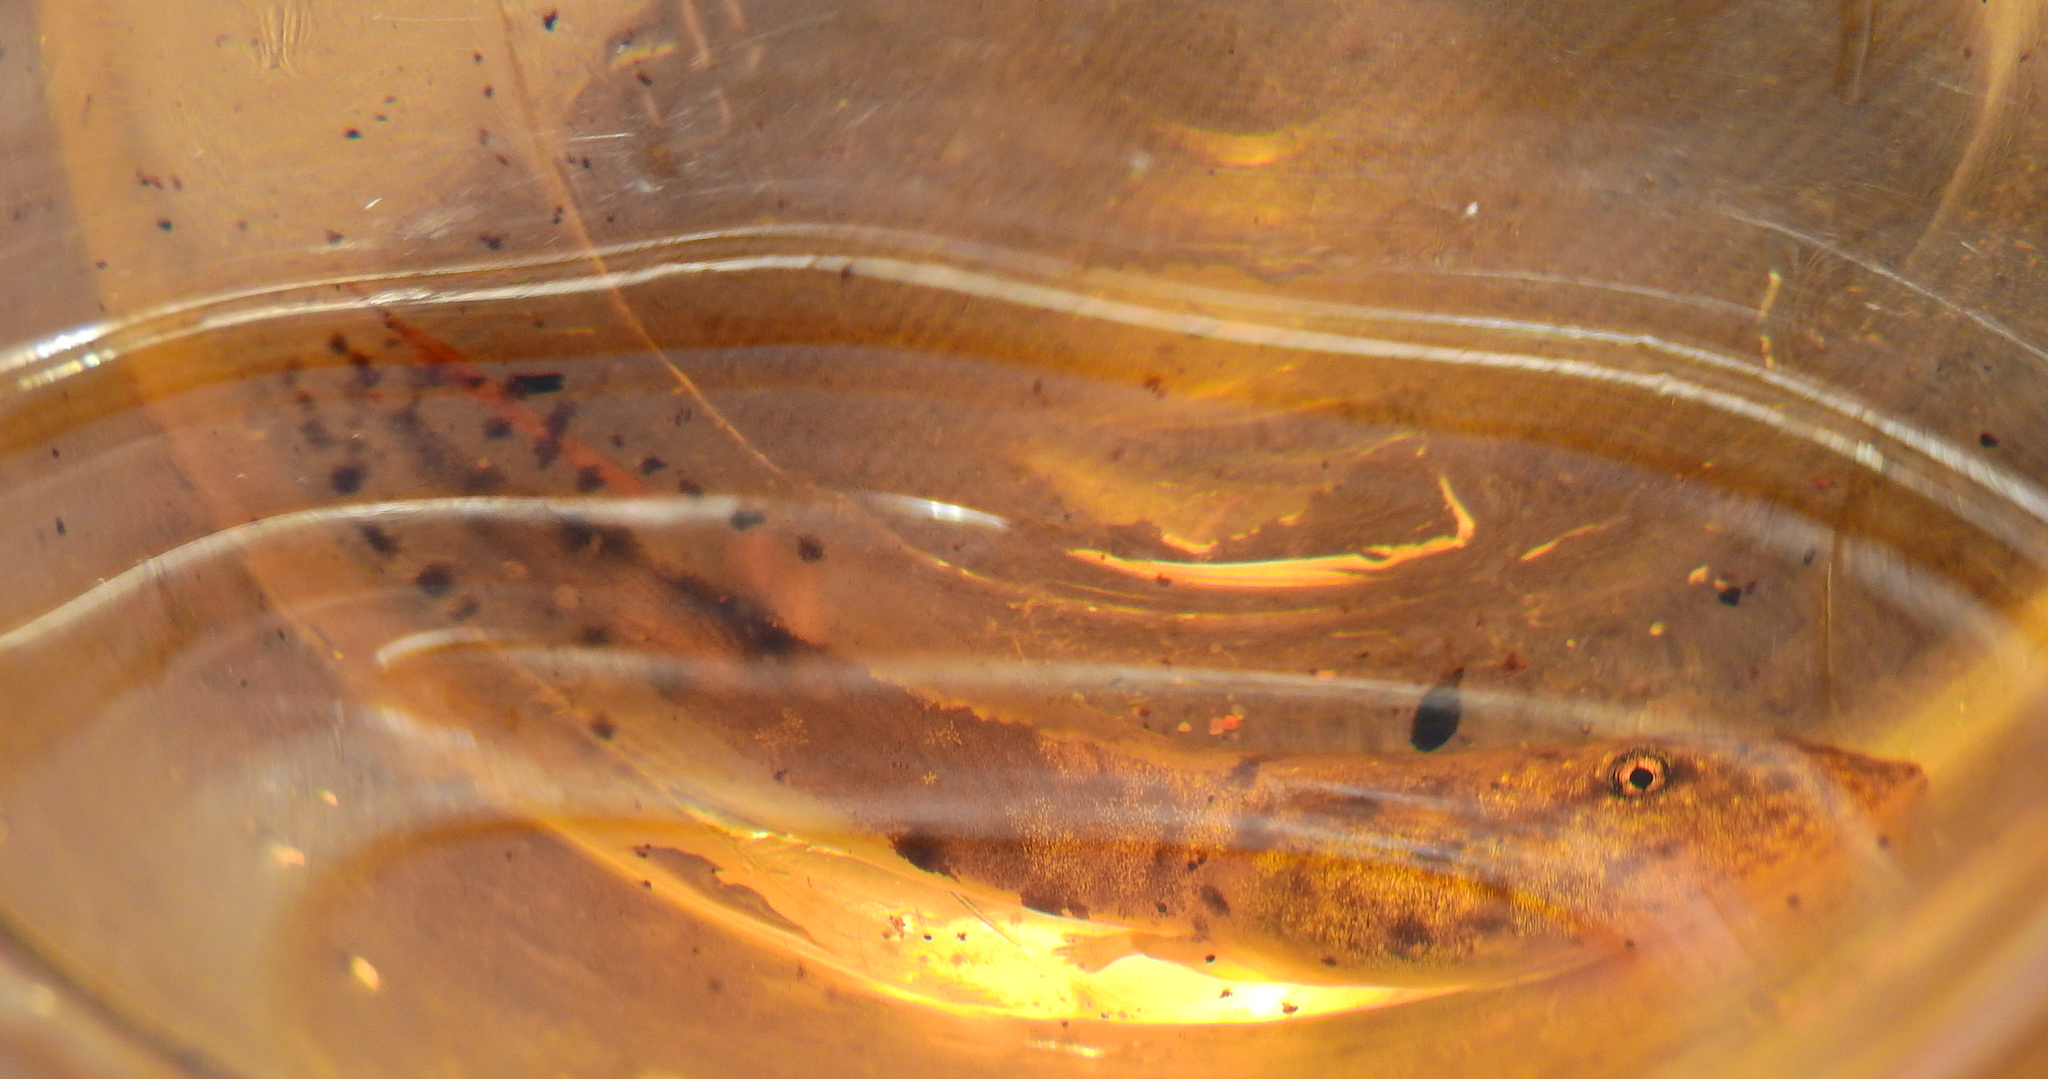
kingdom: Animalia
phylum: Chordata
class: Amphibia
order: Anura
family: Heleophrynidae
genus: Heleophryne
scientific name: Heleophryne purcelli
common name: Purcell's ghost frog
